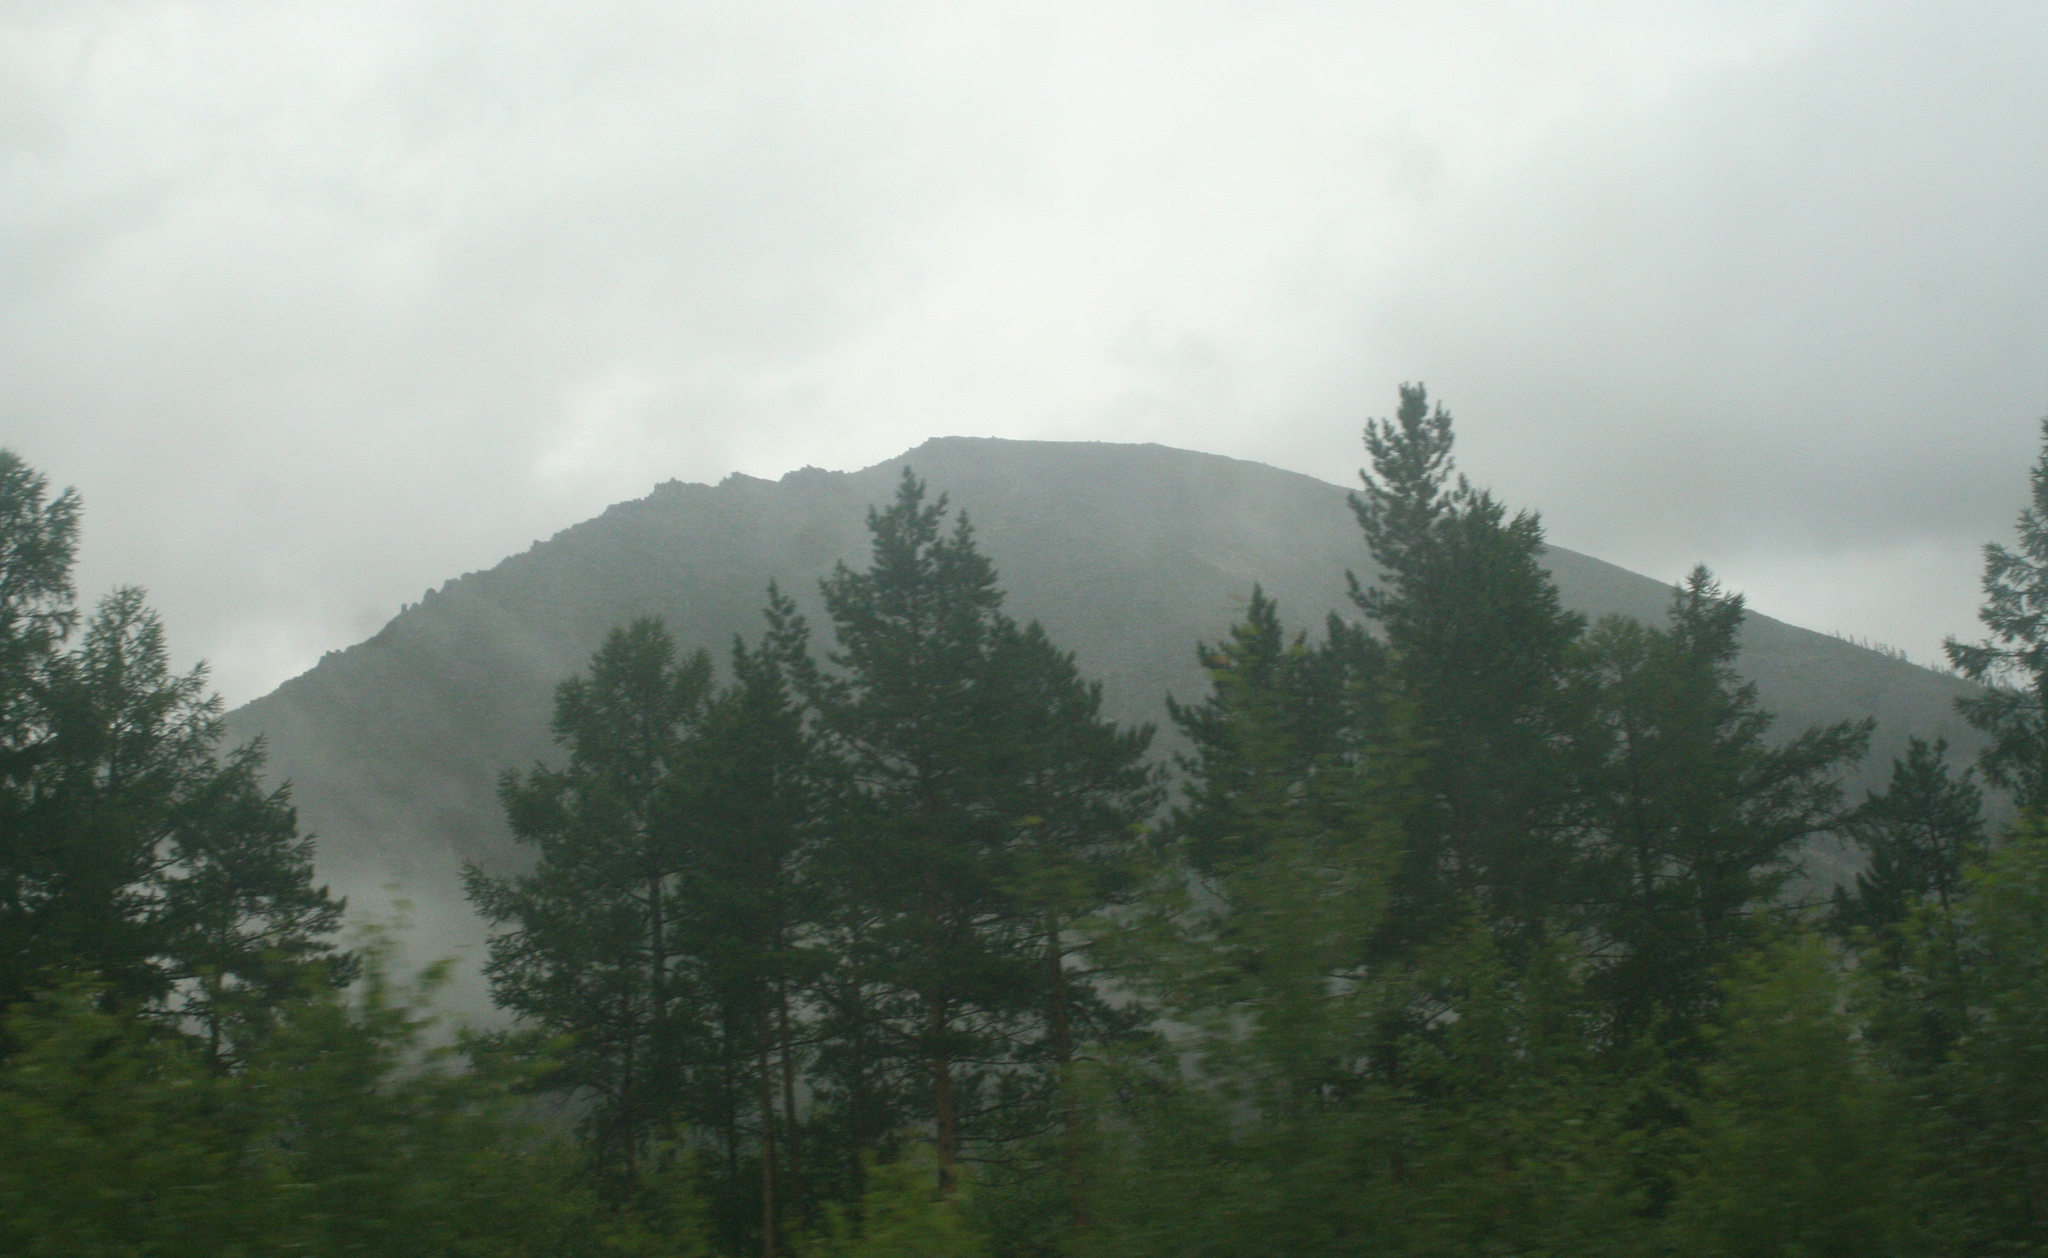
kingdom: Plantae
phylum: Tracheophyta
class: Pinopsida
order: Pinales
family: Pinaceae
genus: Larix
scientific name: Larix gmelinii
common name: Dahurian larch
